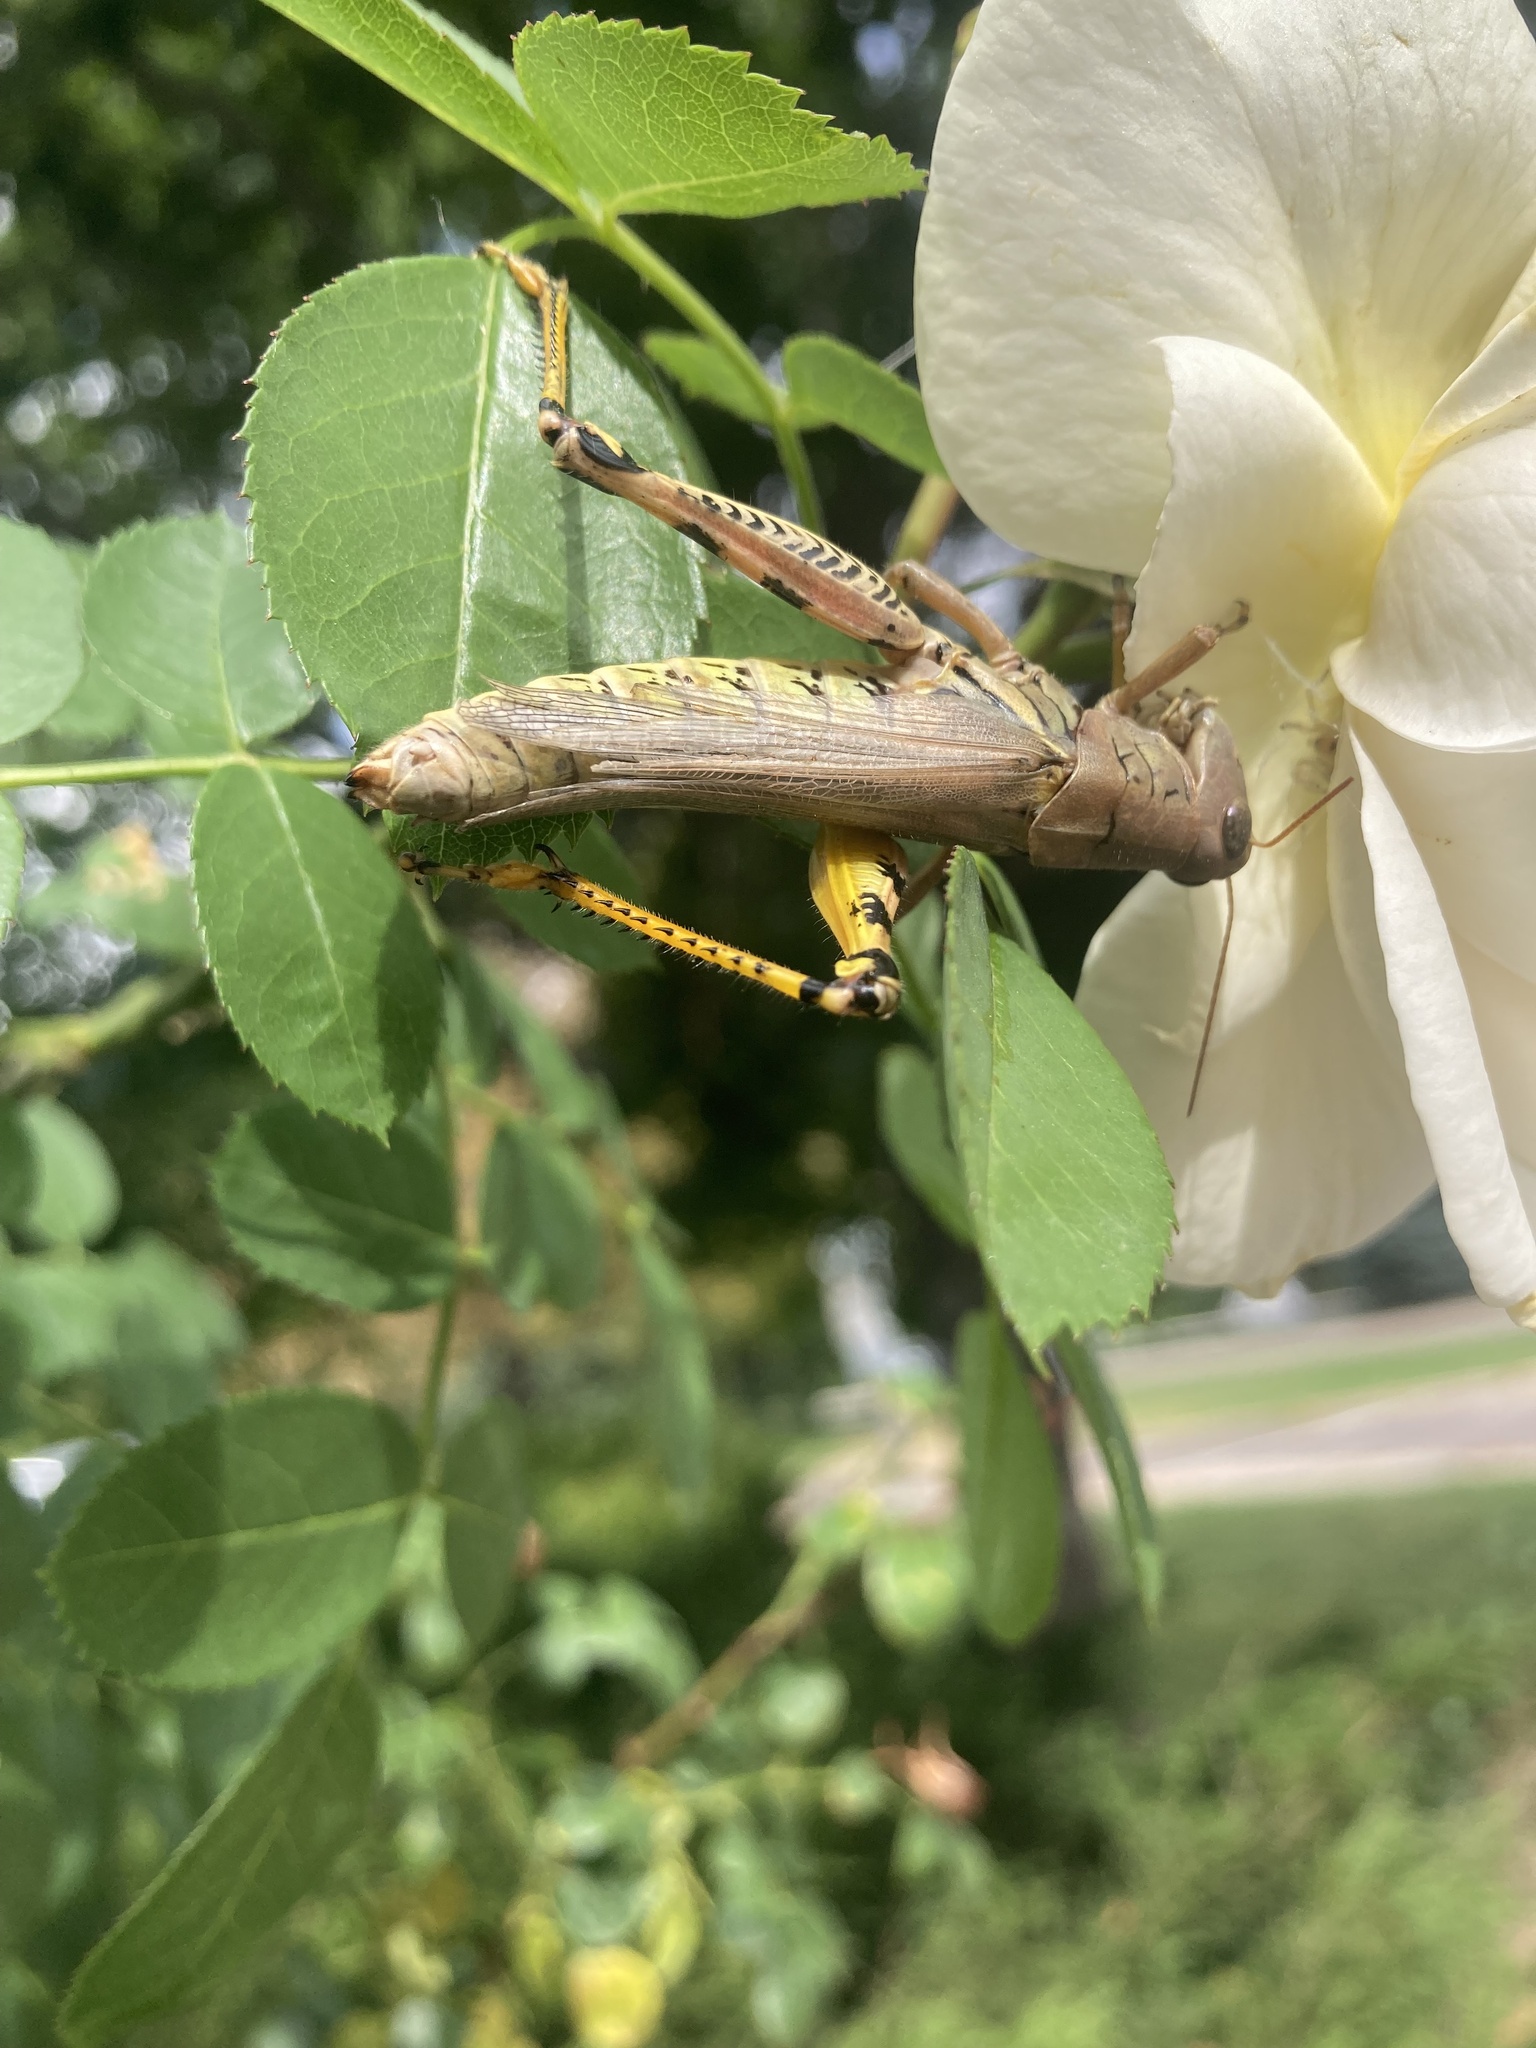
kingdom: Animalia
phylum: Arthropoda
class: Insecta
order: Orthoptera
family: Acrididae
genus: Melanoplus
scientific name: Melanoplus differentialis
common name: Differential grasshopper
